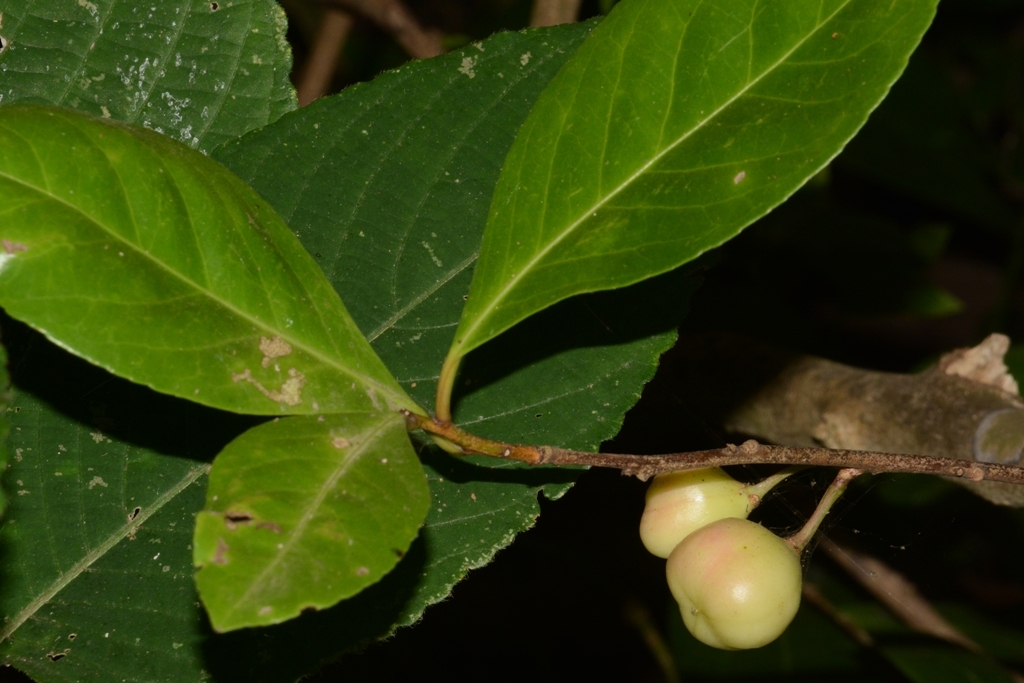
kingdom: Plantae
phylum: Tracheophyta
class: Magnoliopsida
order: Celastrales
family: Celastraceae
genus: Gymnosporia
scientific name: Gymnosporia rothiana
